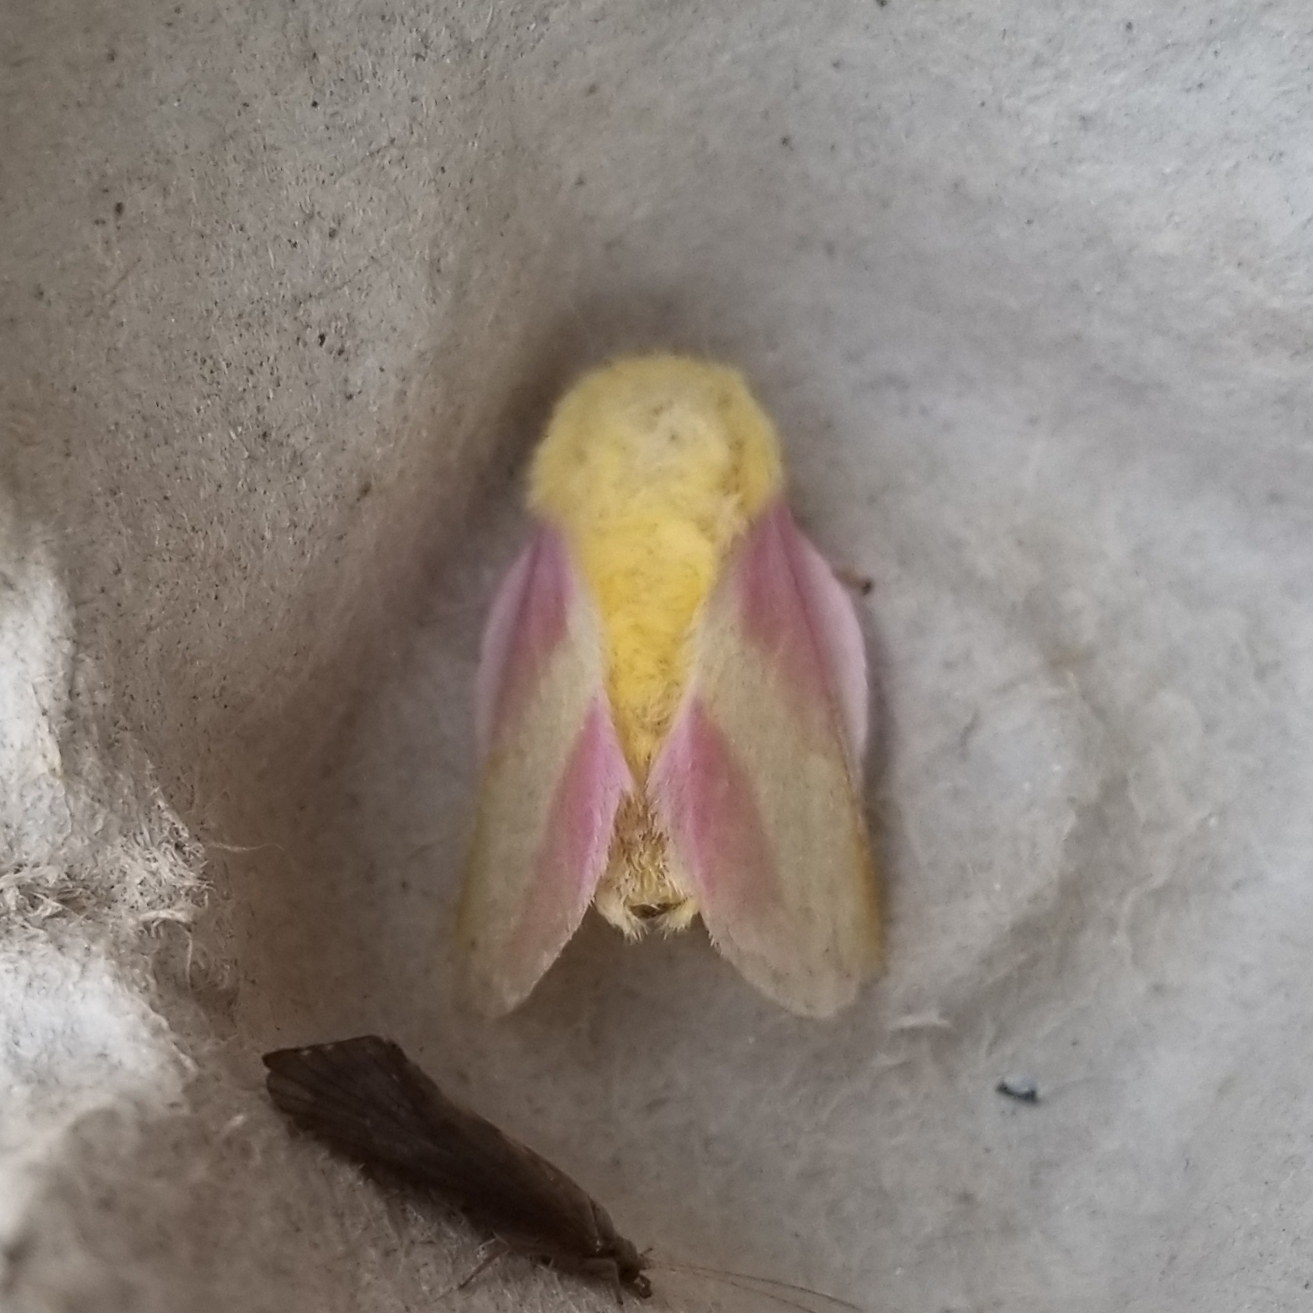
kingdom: Animalia
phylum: Arthropoda
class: Insecta
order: Lepidoptera
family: Saturniidae
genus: Dryocampa
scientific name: Dryocampa rubicunda
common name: Rosy maple moth
